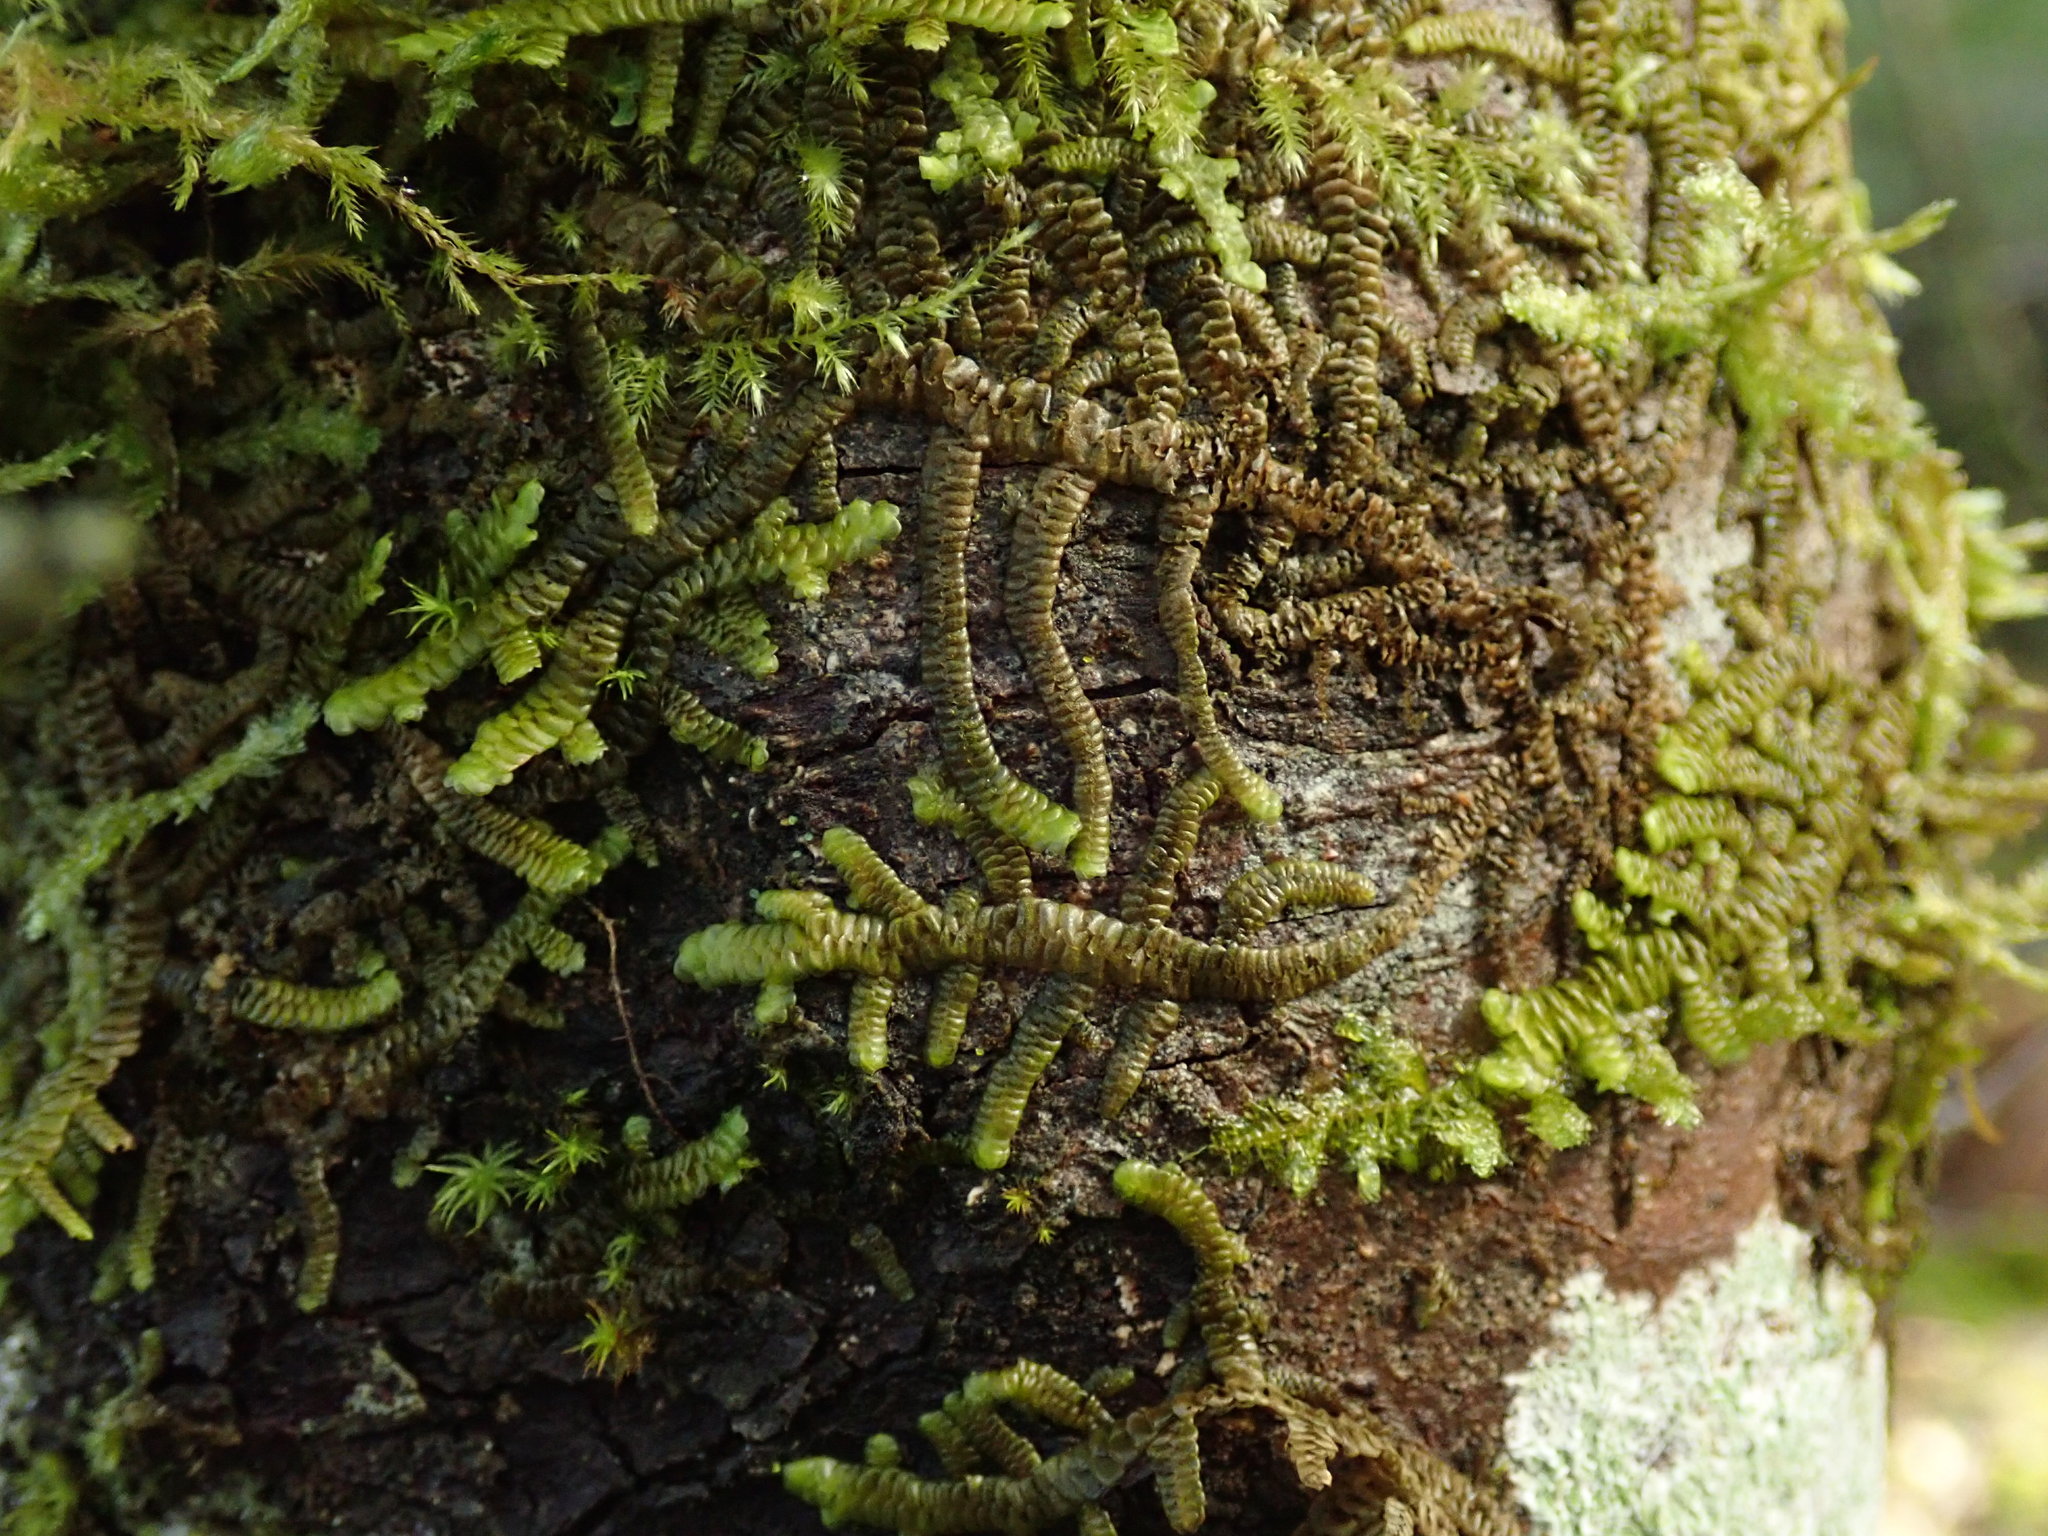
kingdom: Plantae
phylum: Marchantiophyta
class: Jungermanniopsida
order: Porellales
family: Porellaceae
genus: Porella
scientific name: Porella navicularis
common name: Tree ruffle liverwort
